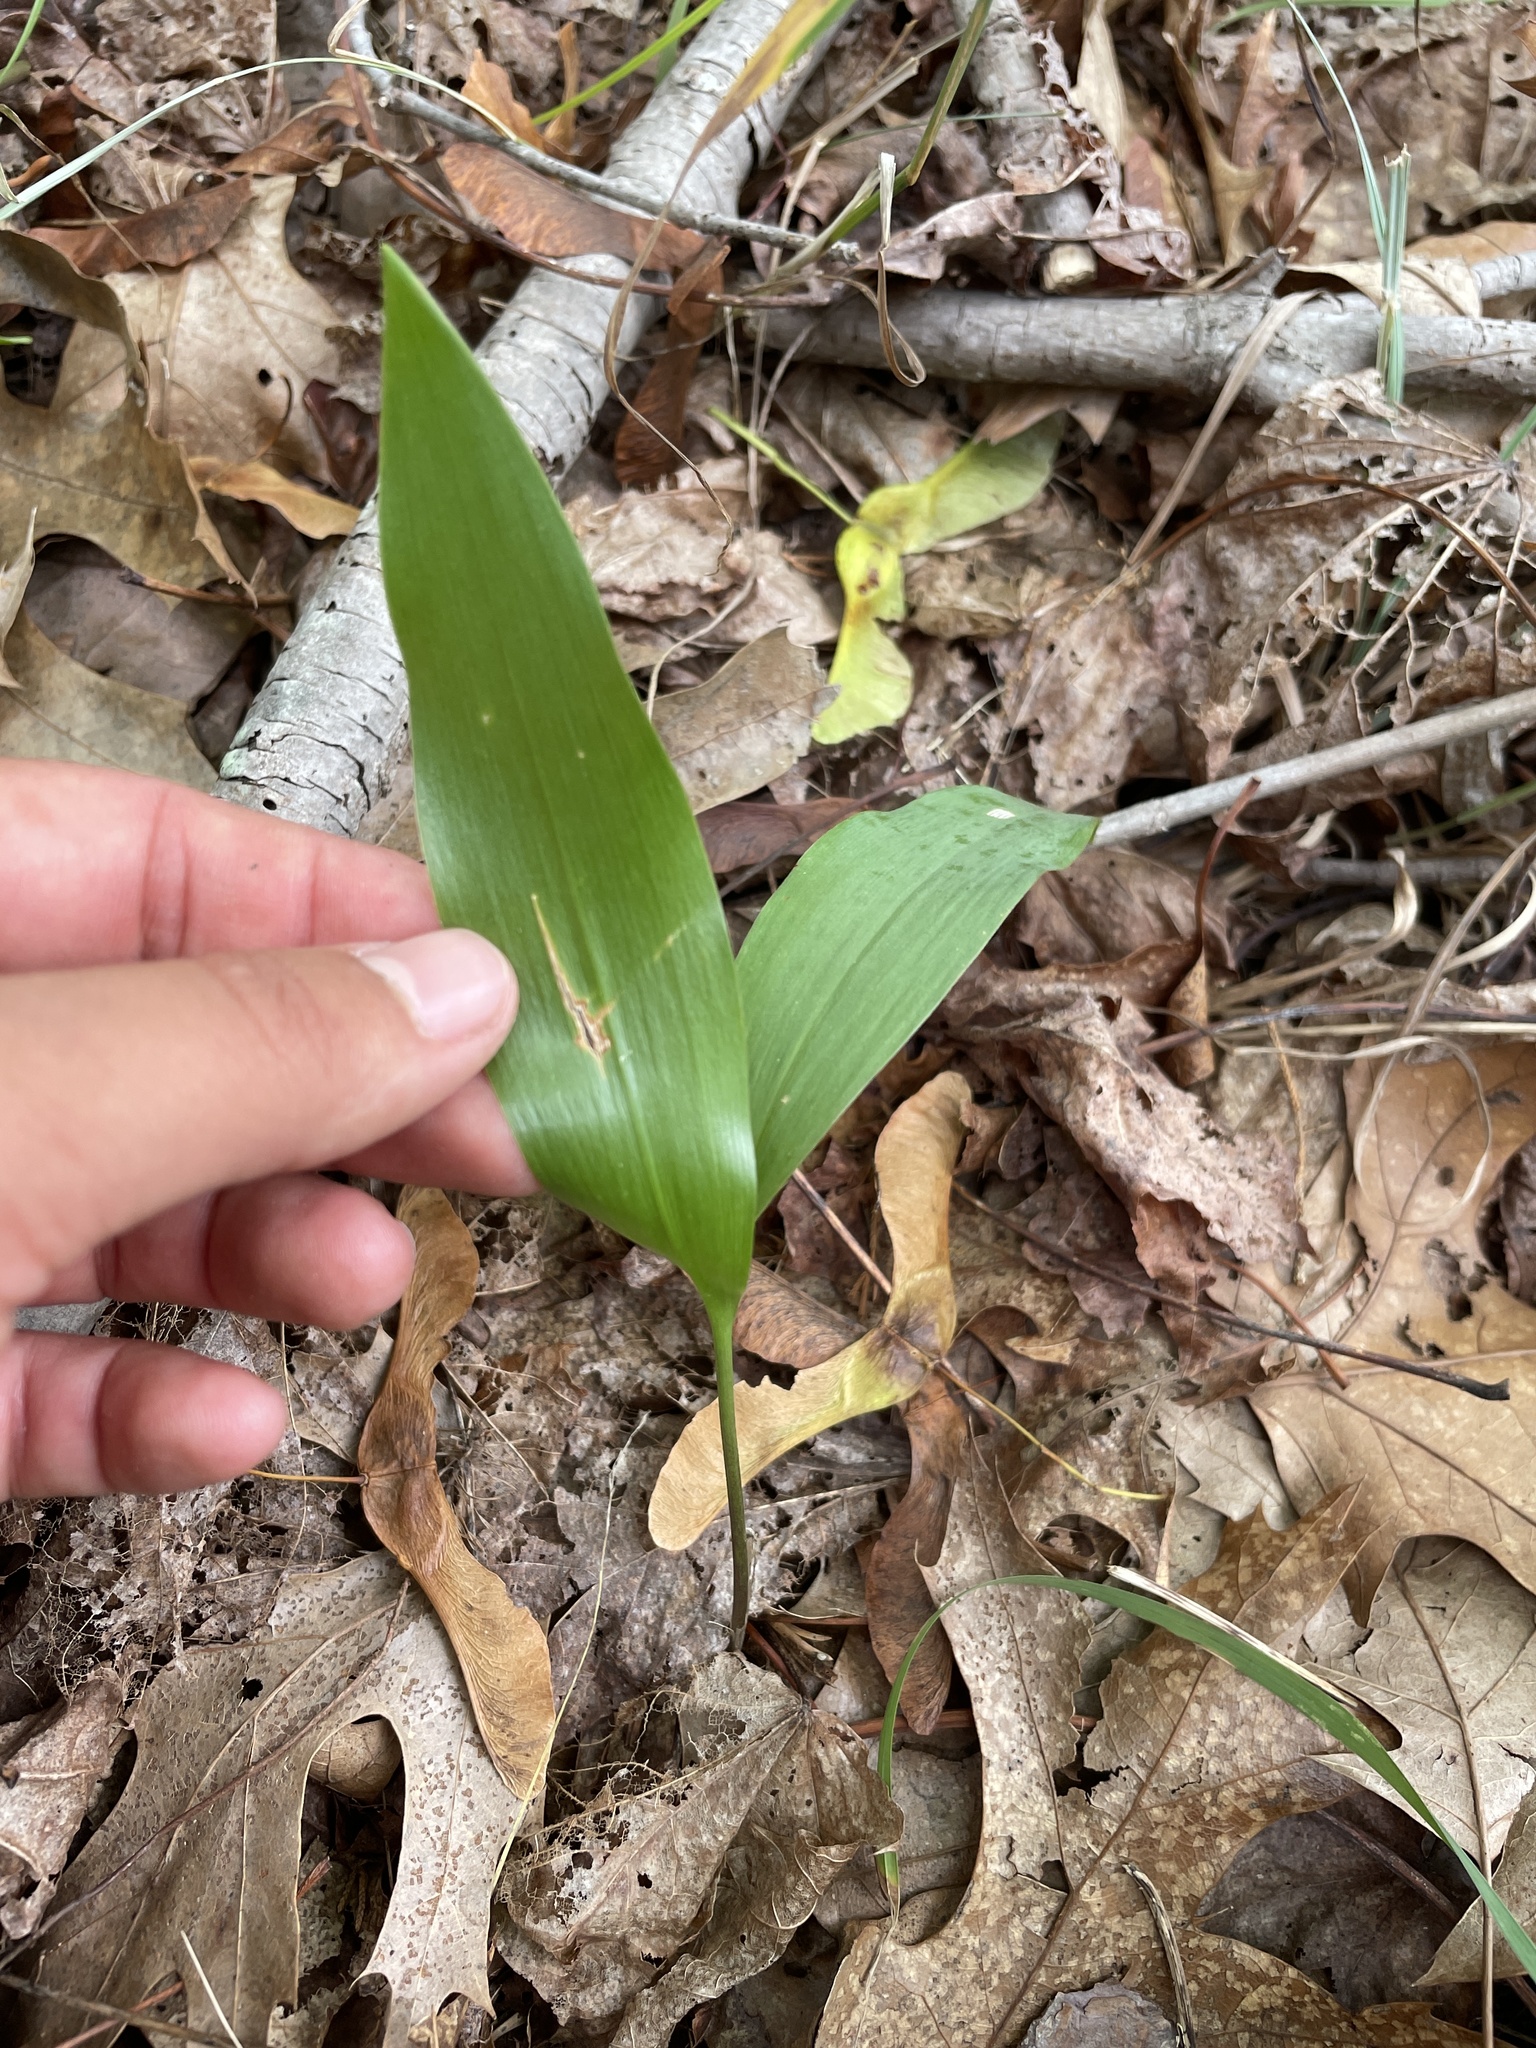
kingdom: Plantae
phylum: Tracheophyta
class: Liliopsida
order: Asparagales
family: Asparagaceae
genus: Convallaria
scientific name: Convallaria majalis
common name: Lily-of-the-valley
